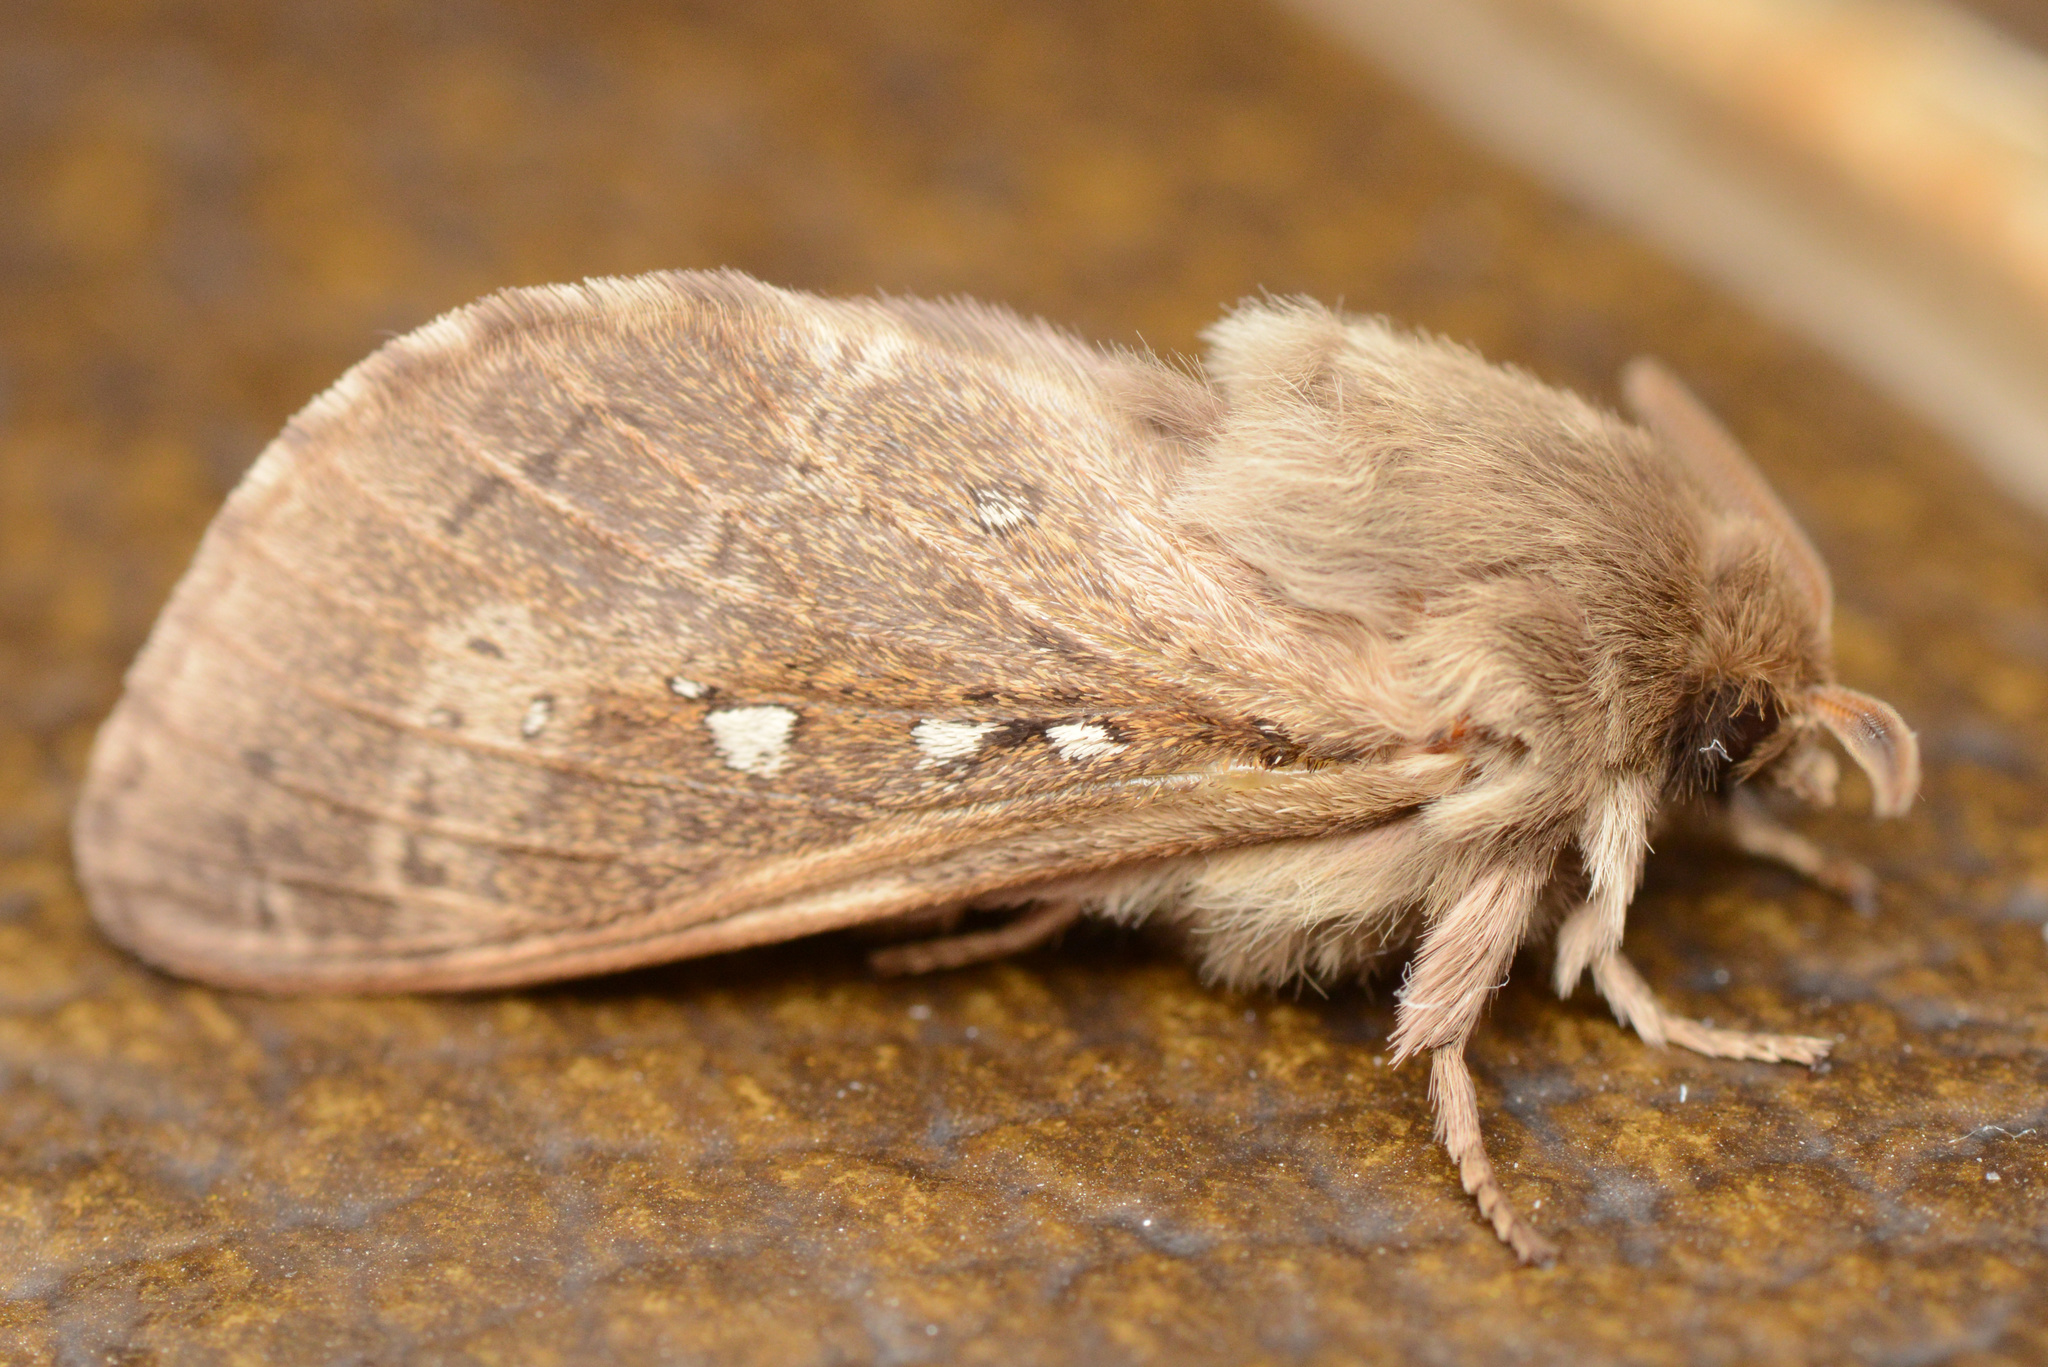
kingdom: Animalia
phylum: Arthropoda
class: Insecta
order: Lepidoptera
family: Hepialidae
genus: Wiseana
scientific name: Wiseana copularis
